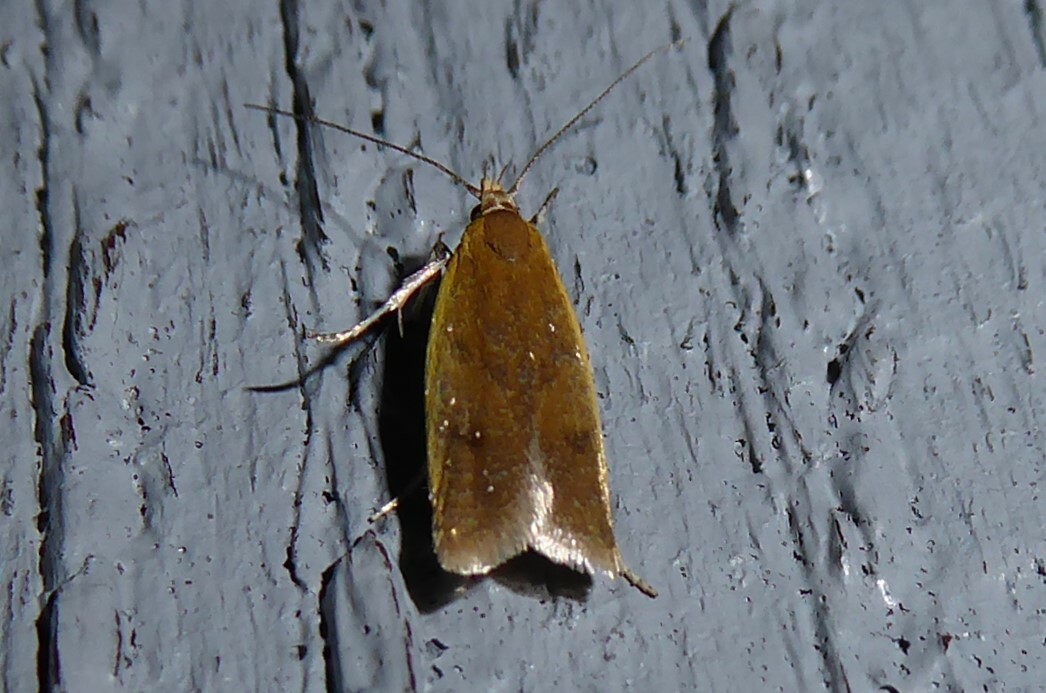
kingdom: Animalia
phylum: Arthropoda
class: Insecta
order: Lepidoptera
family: Oecophoridae
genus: Gymnobathra
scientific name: Gymnobathra parca
